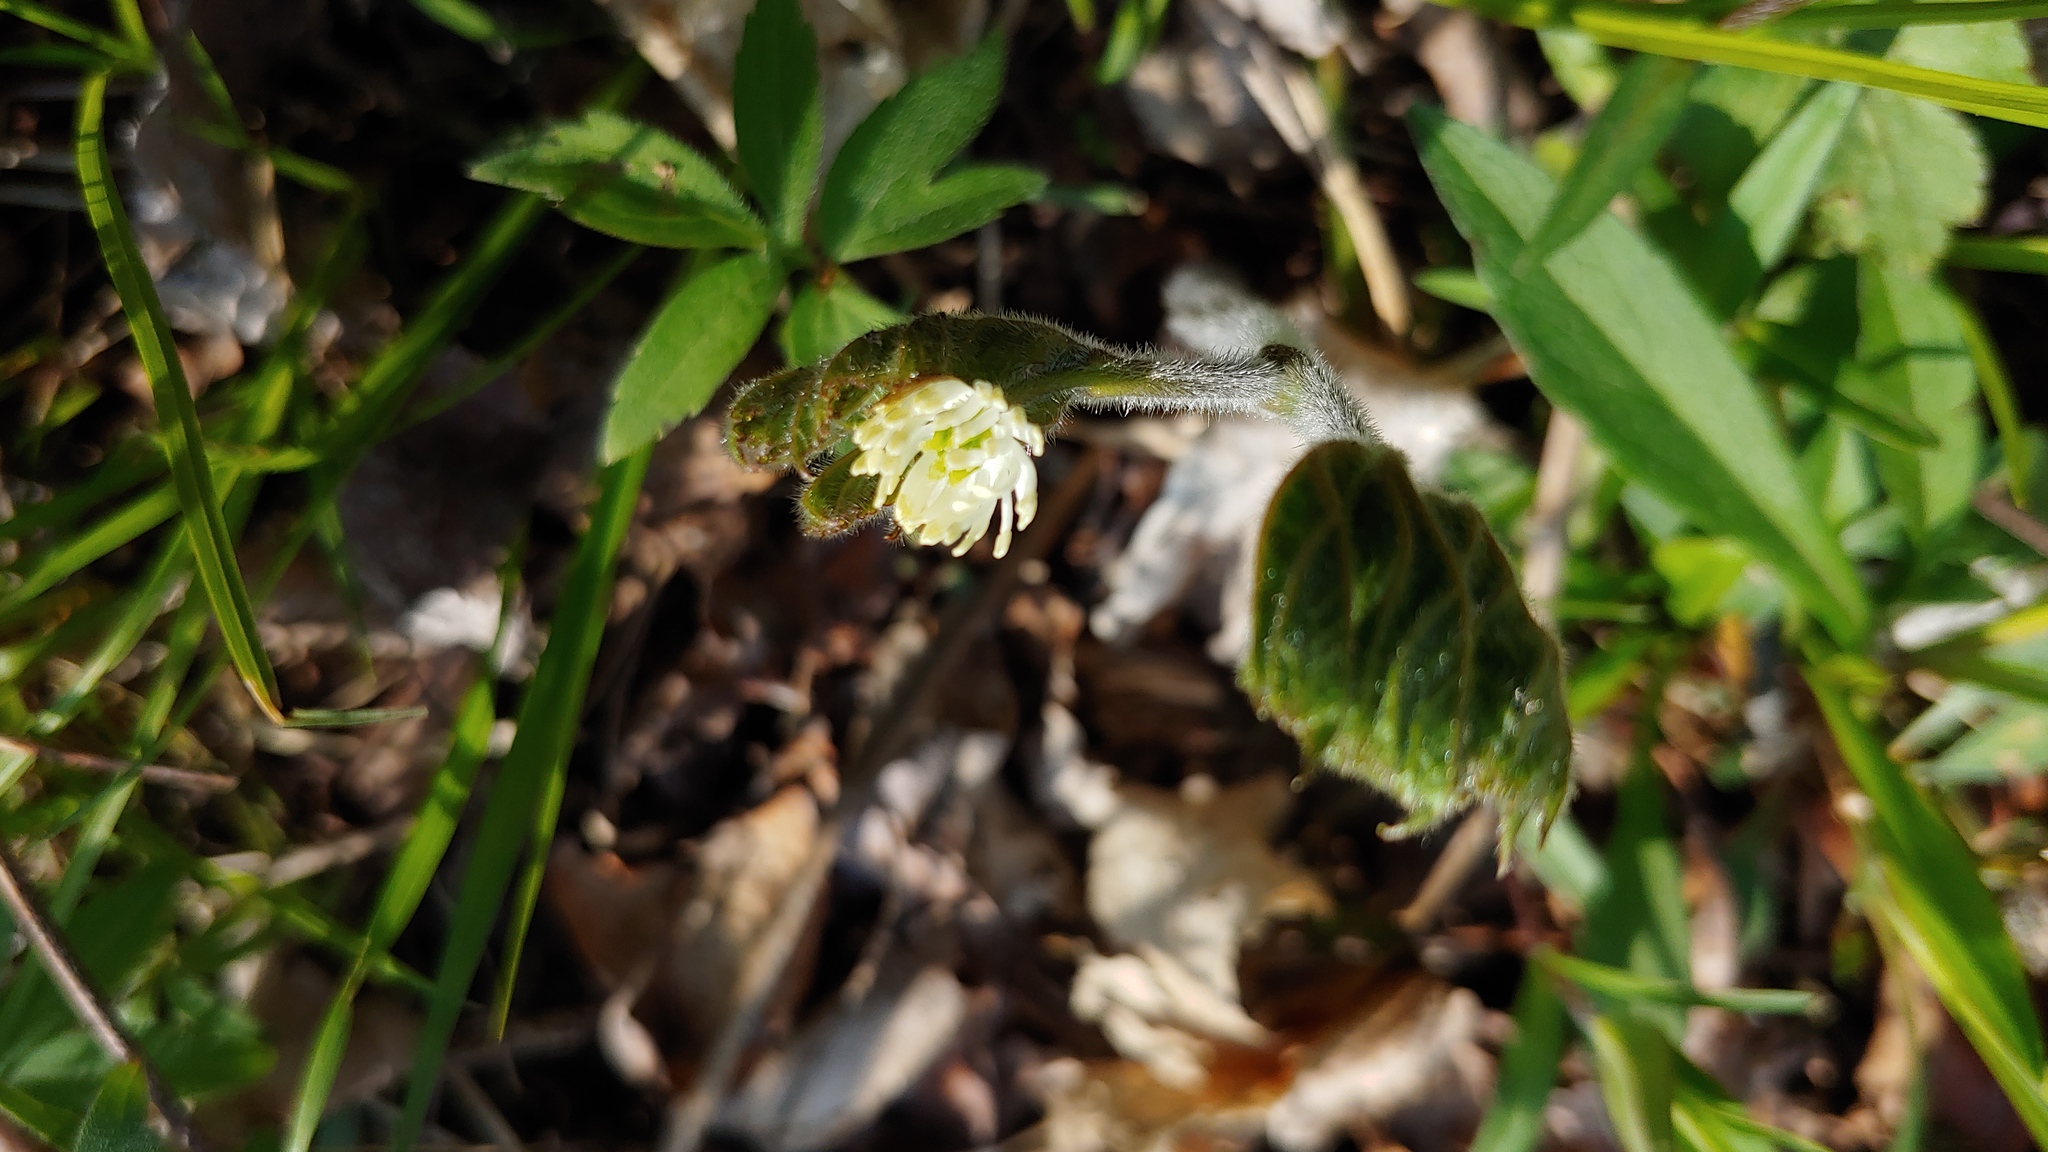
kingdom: Plantae
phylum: Tracheophyta
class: Magnoliopsida
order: Ranunculales
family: Ranunculaceae
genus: Hydrastis
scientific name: Hydrastis canadensis
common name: Goldenseal
